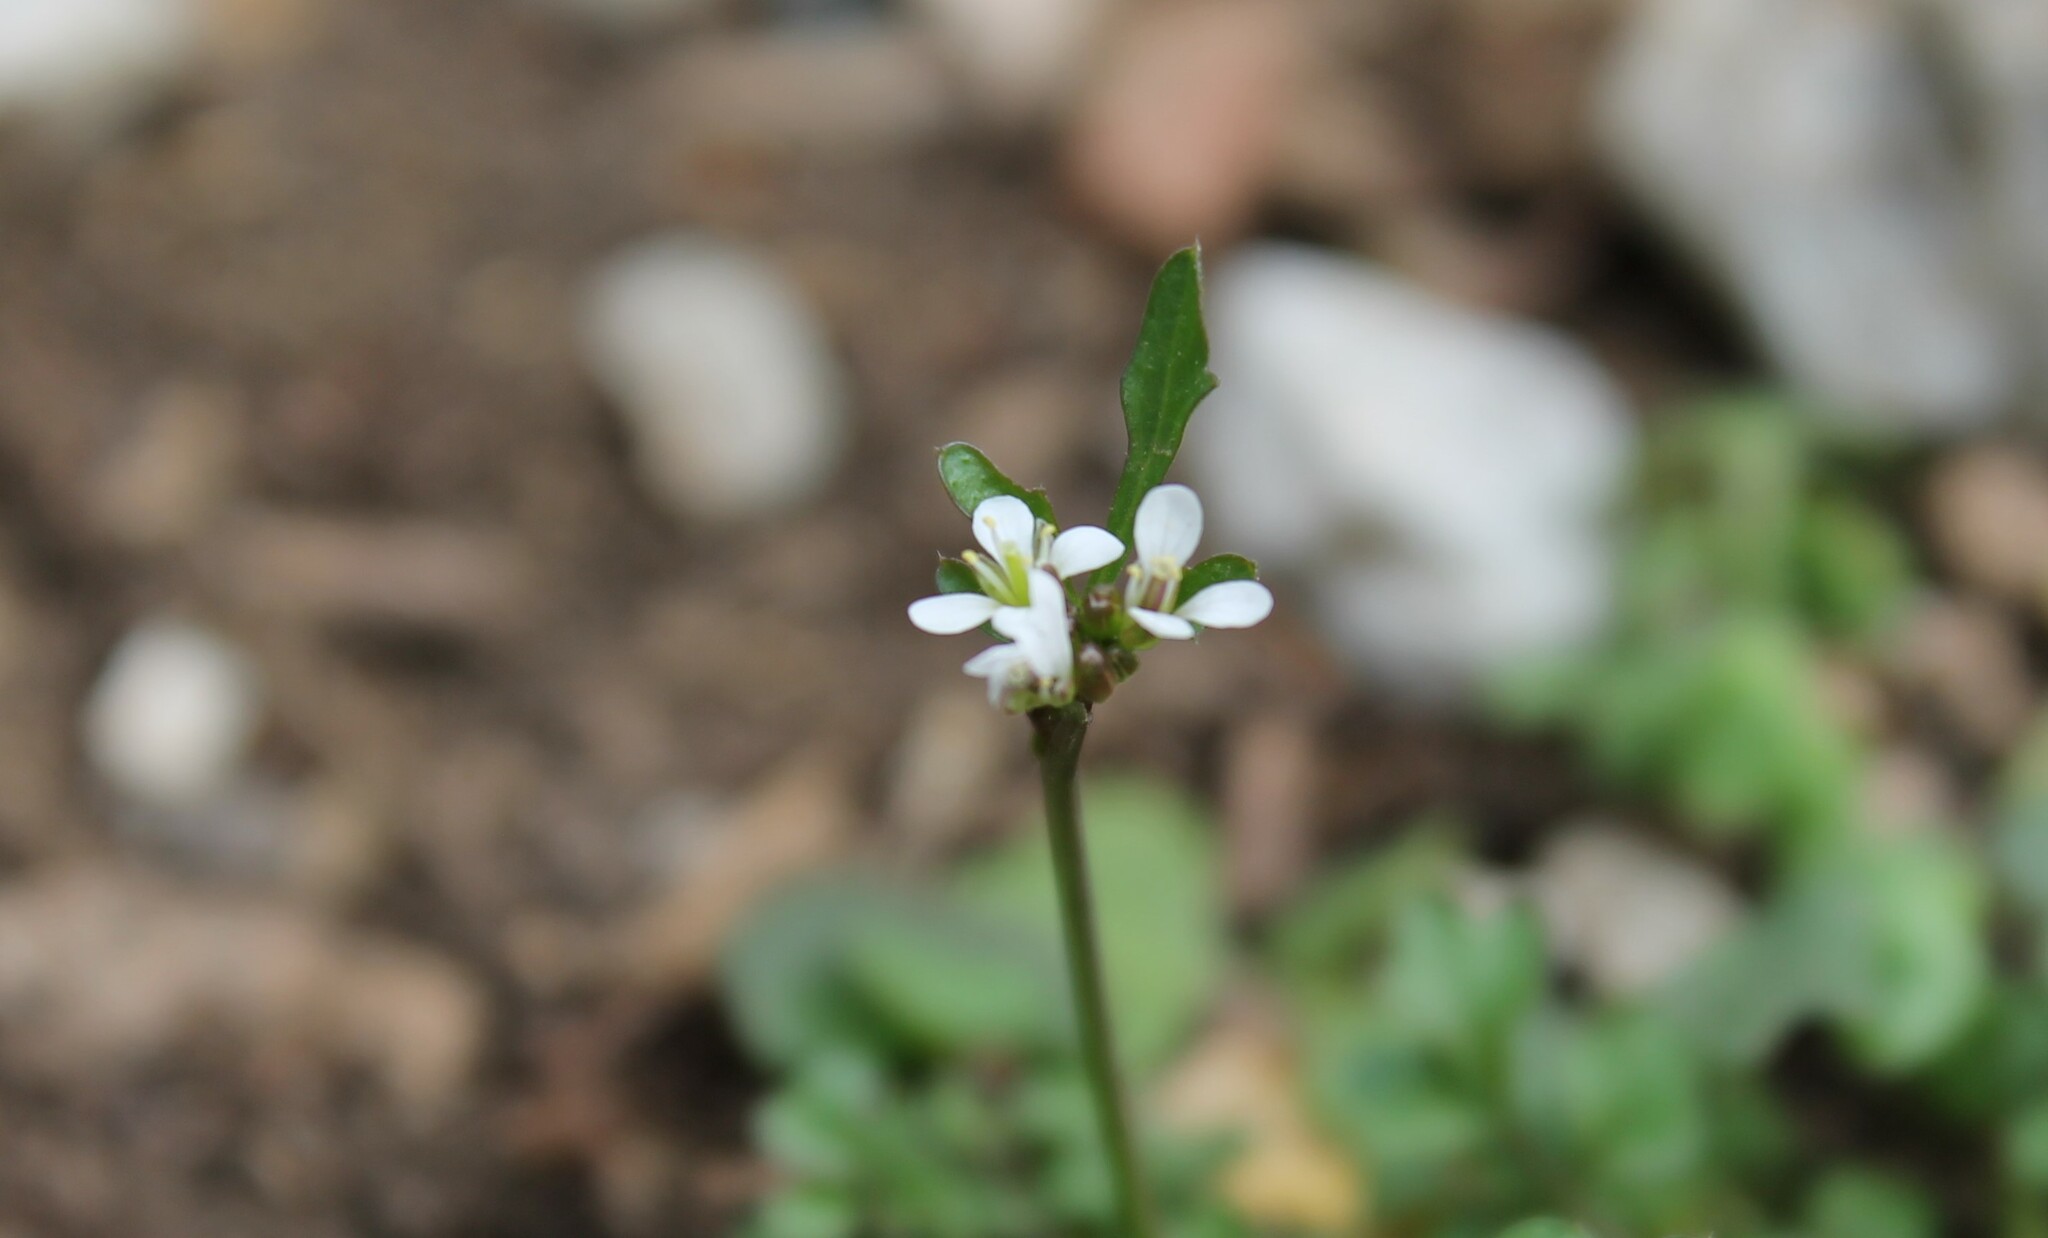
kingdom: Plantae
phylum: Tracheophyta
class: Magnoliopsida
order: Brassicales
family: Brassicaceae
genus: Cardamine
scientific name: Cardamine hirsuta
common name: Hairy bittercress
